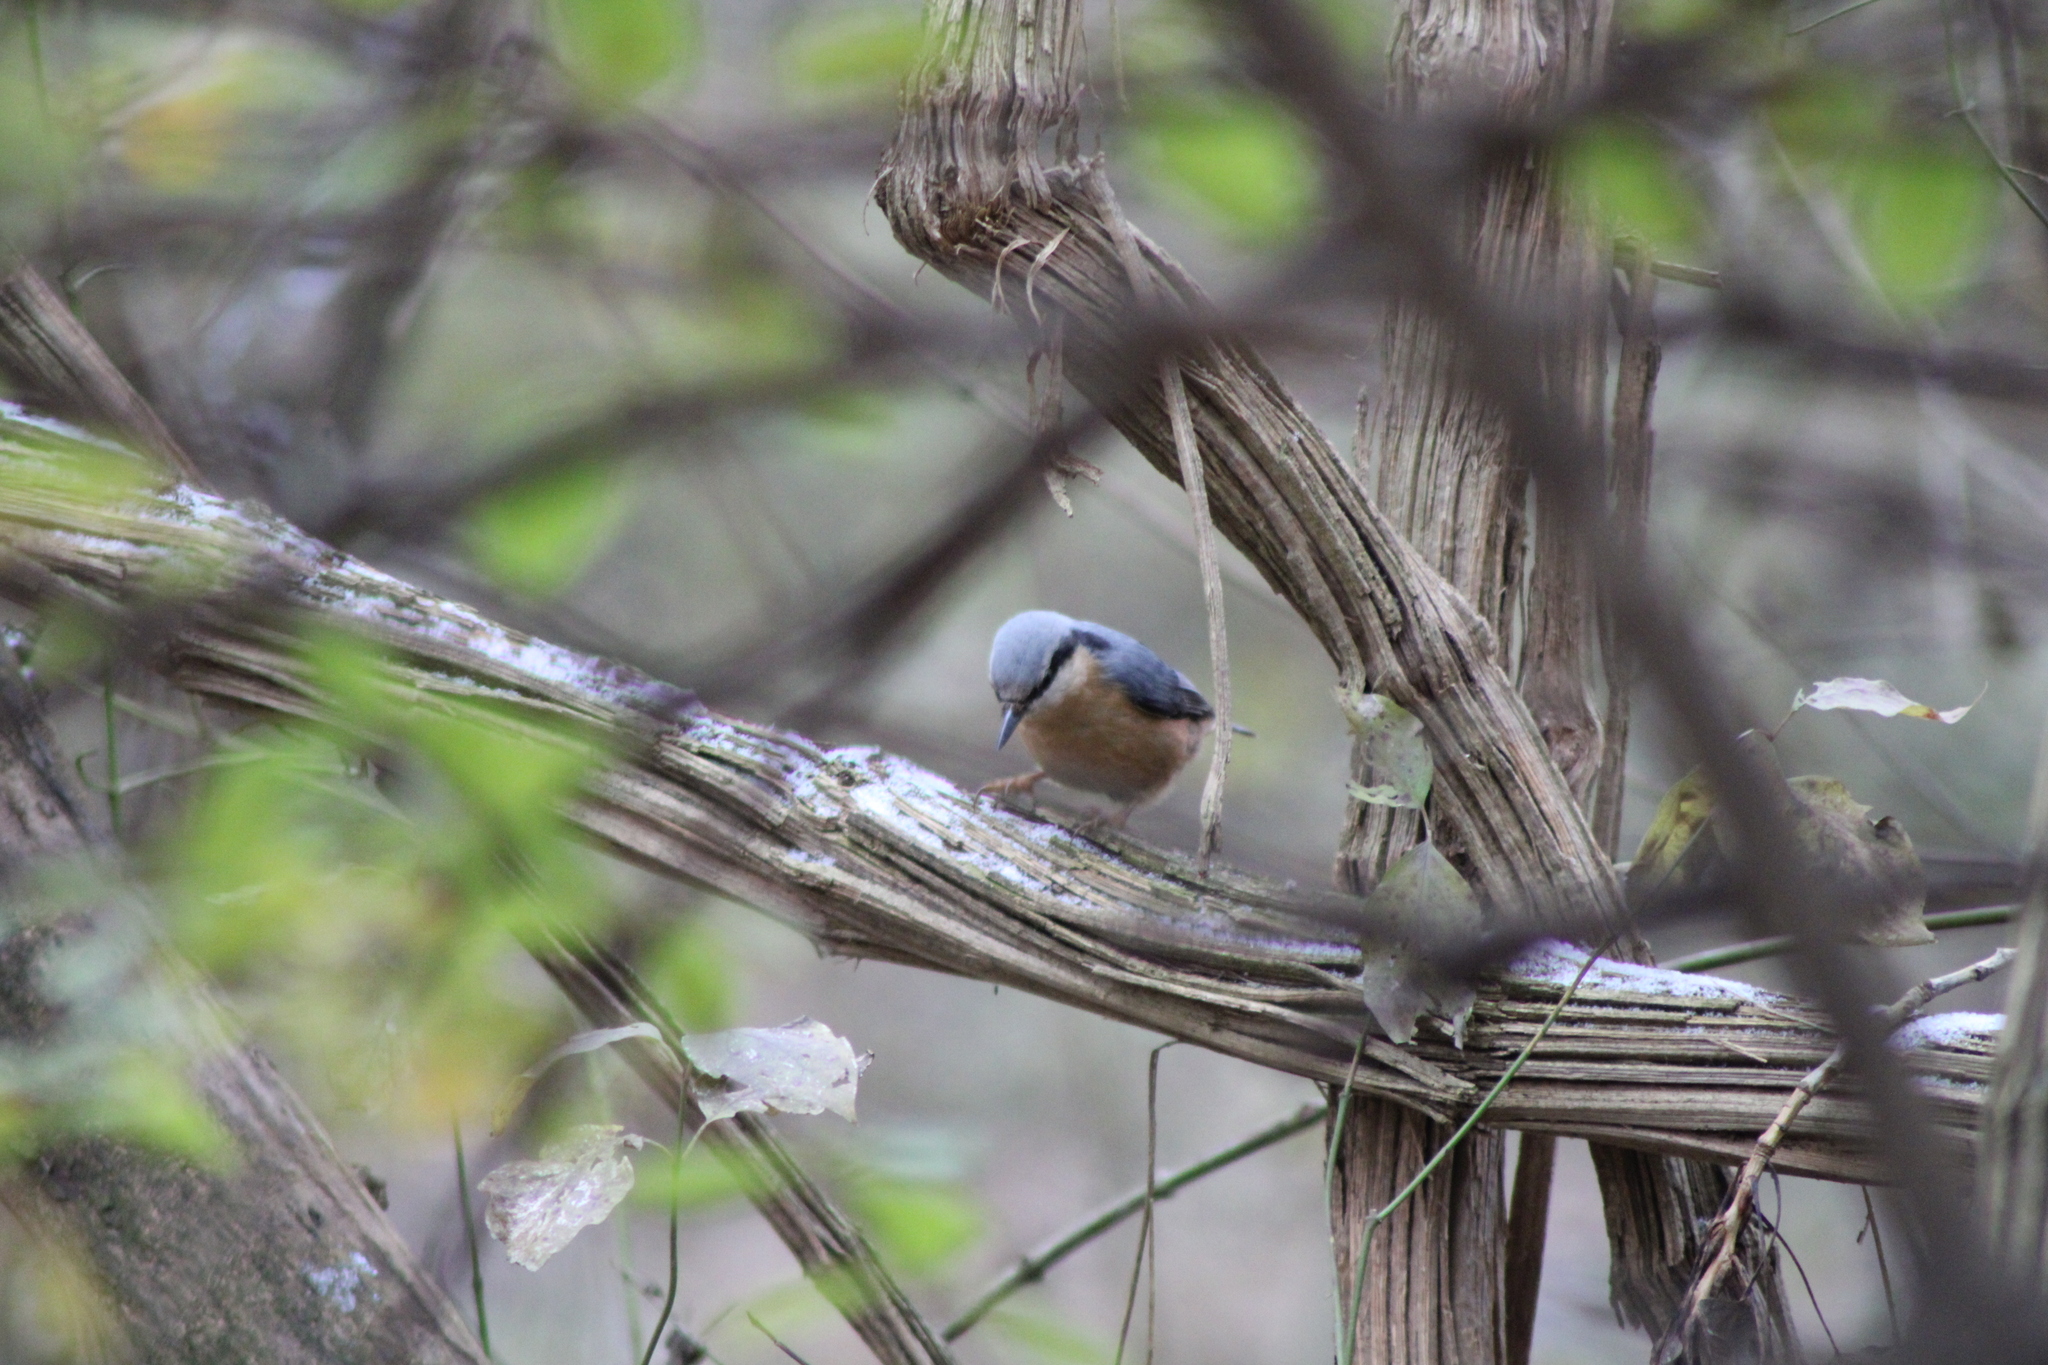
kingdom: Animalia
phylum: Chordata
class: Aves
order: Passeriformes
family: Sittidae
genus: Sitta
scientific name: Sitta europaea
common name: Eurasian nuthatch
